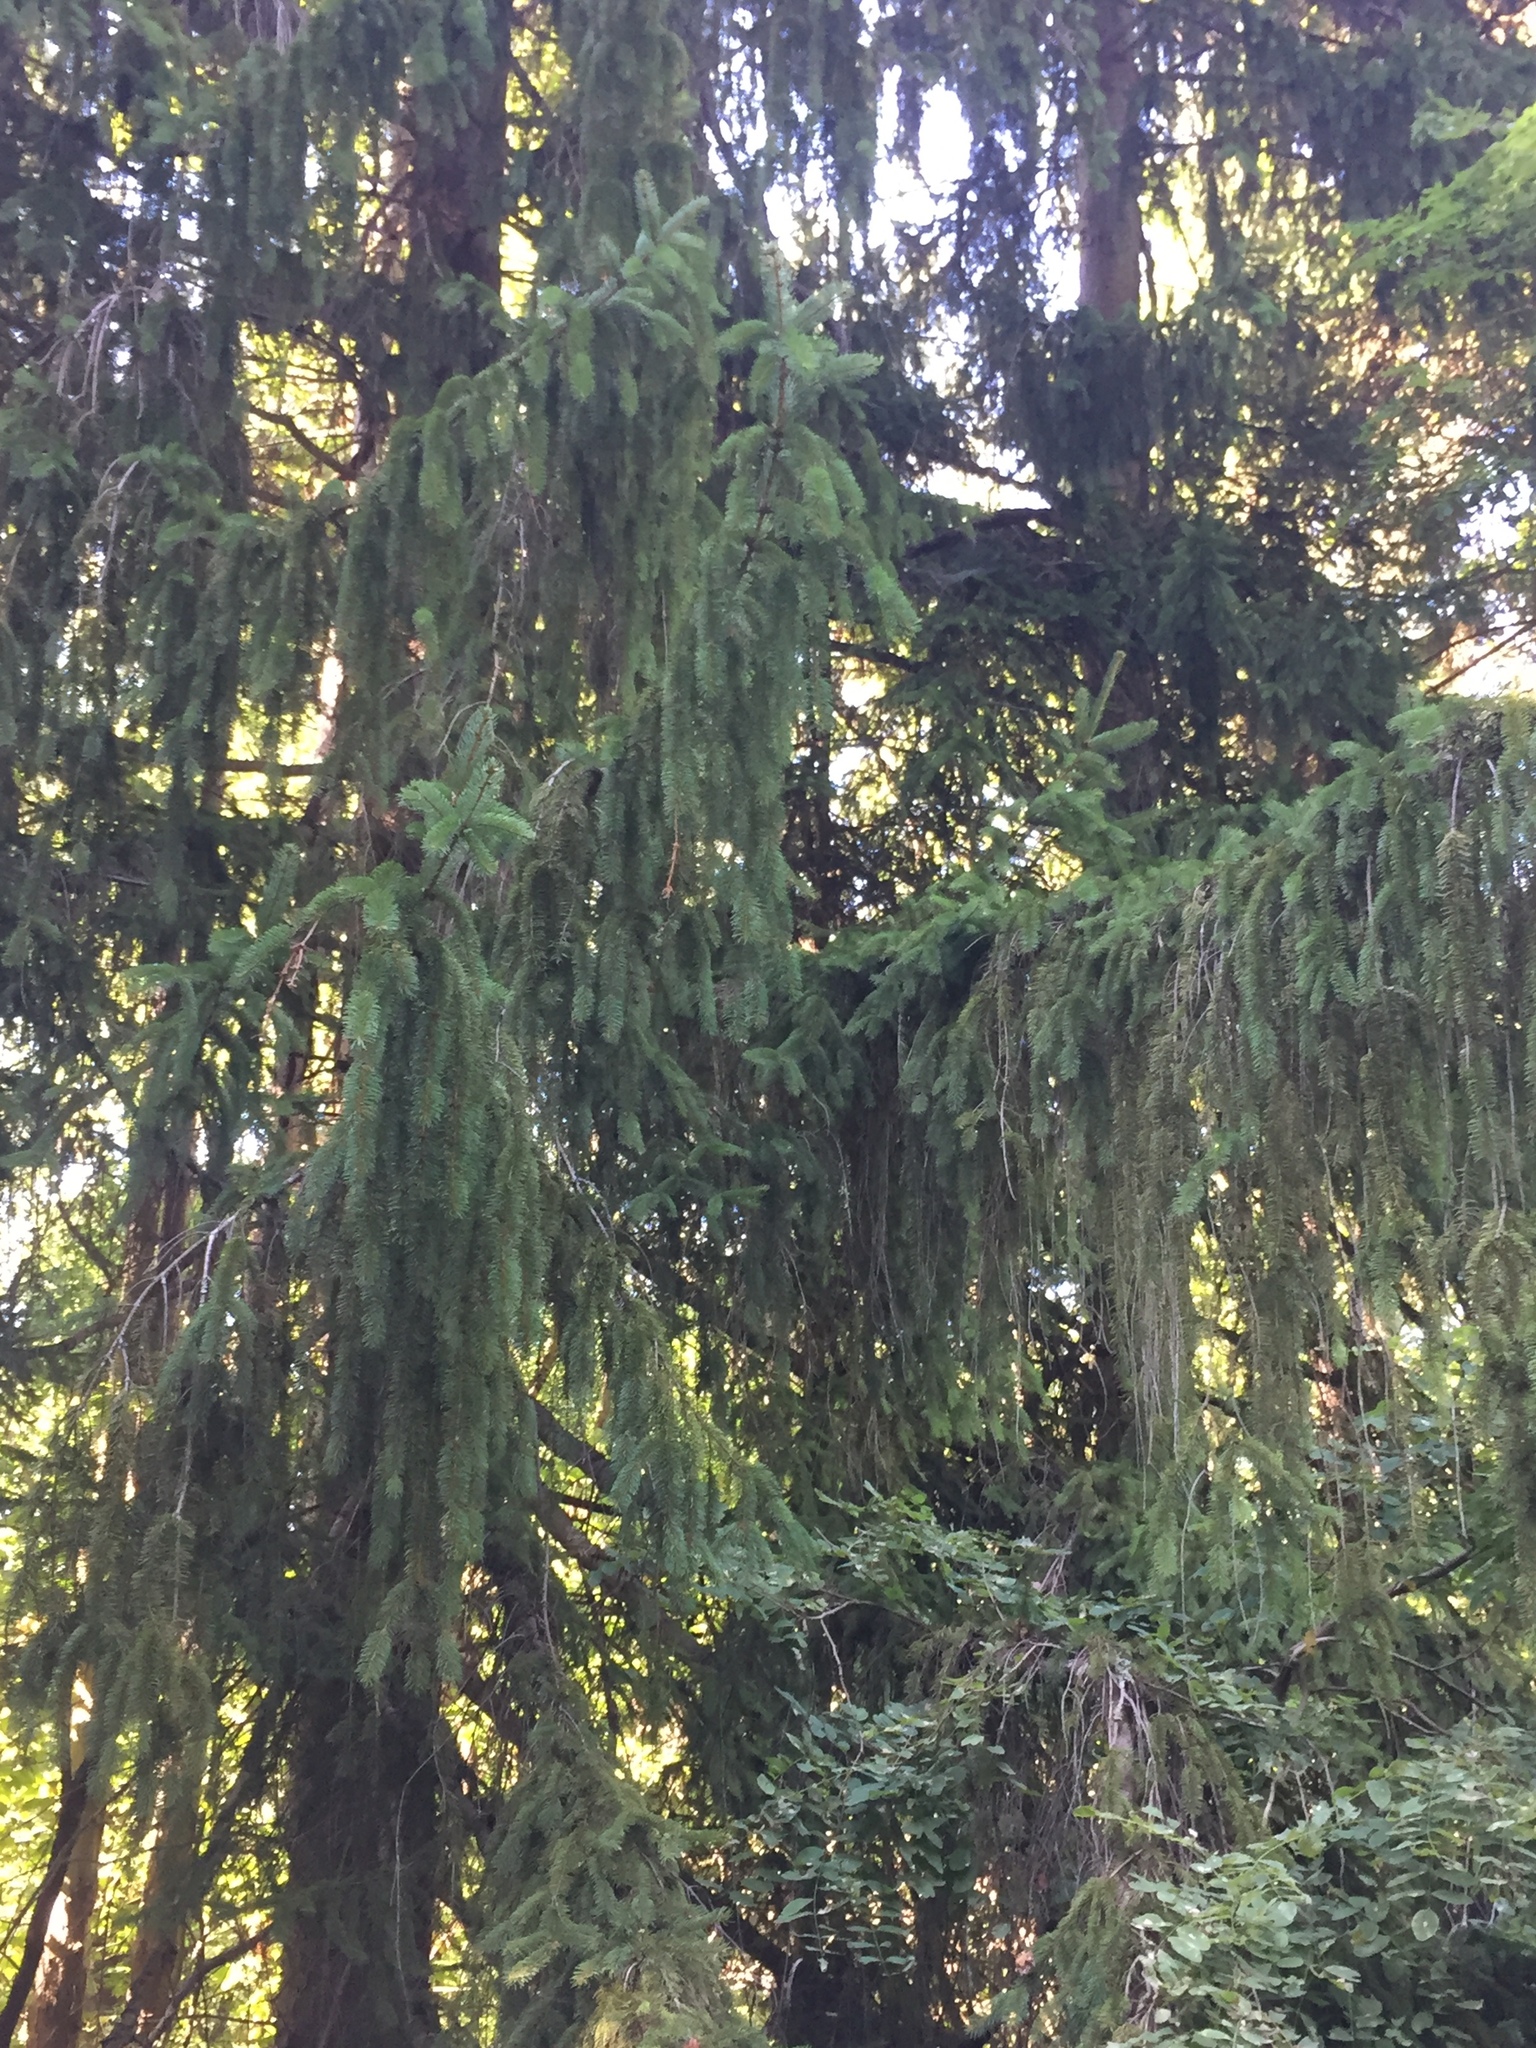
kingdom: Plantae
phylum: Tracheophyta
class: Pinopsida
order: Pinales
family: Pinaceae
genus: Picea
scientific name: Picea abies
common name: Norway spruce
